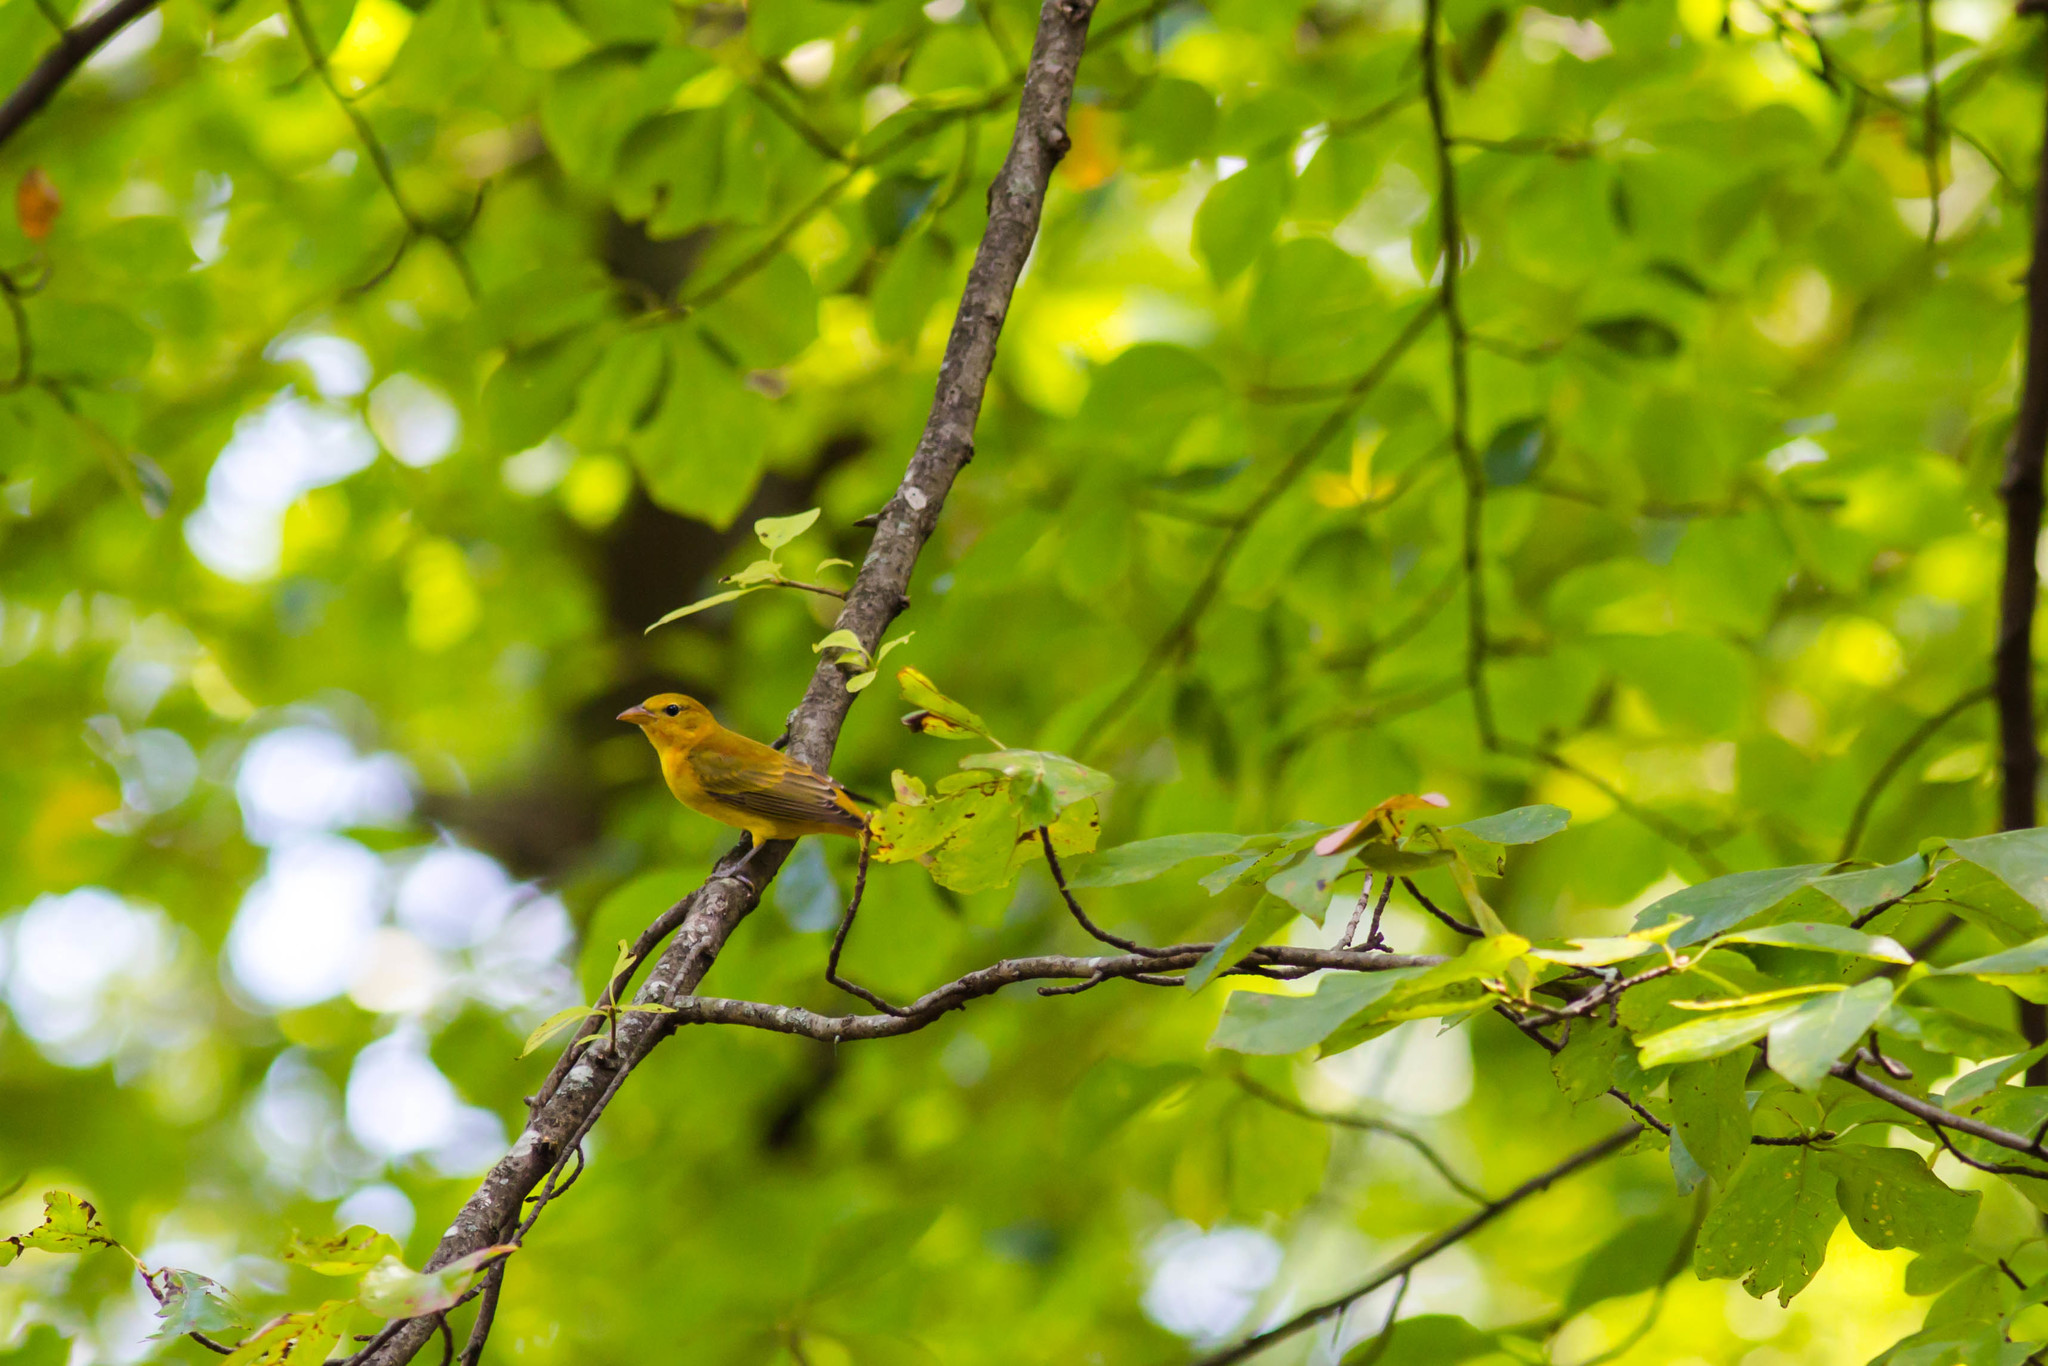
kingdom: Animalia
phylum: Chordata
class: Aves
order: Passeriformes
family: Cardinalidae
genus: Piranga
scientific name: Piranga rubra
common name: Summer tanager
